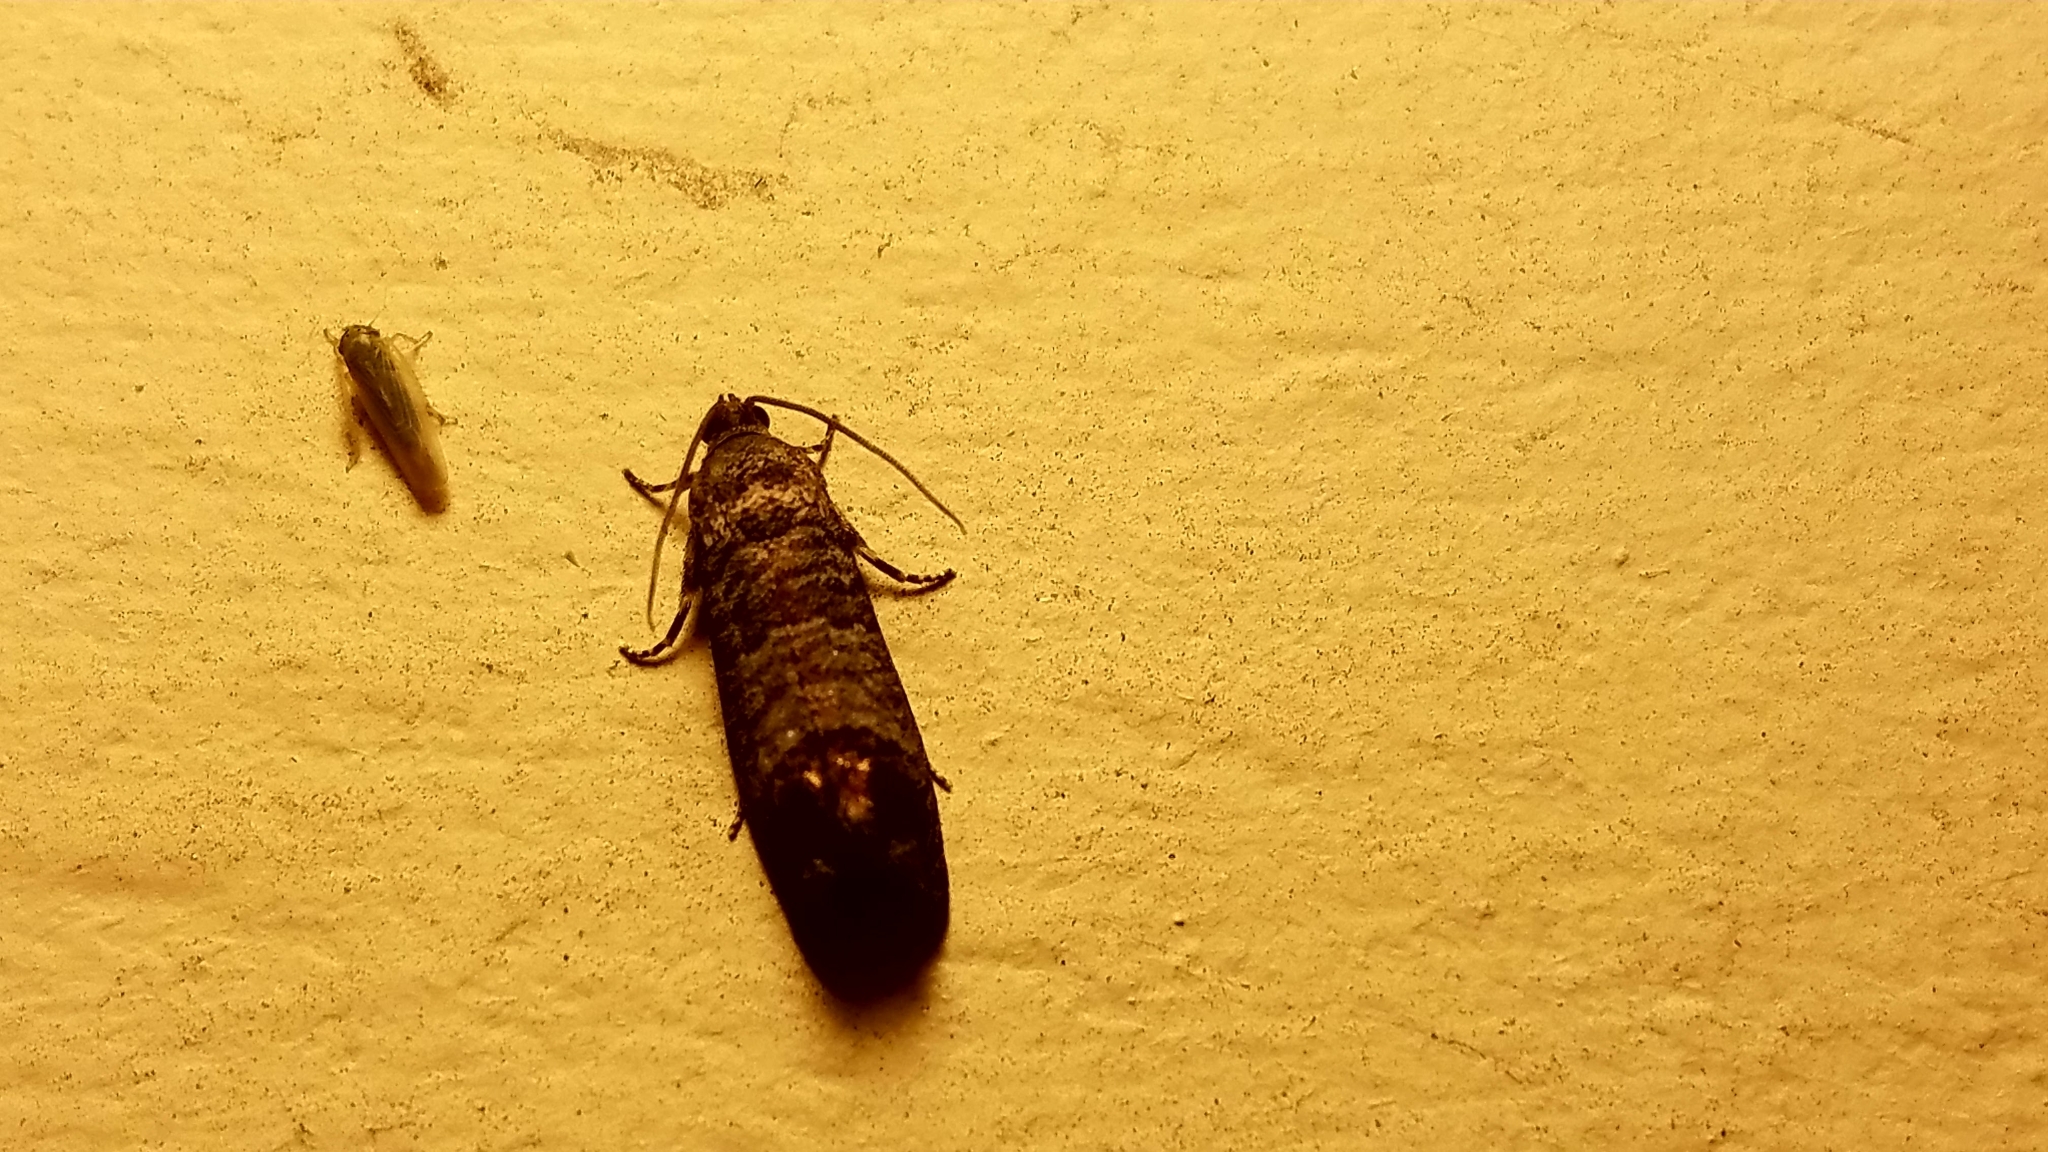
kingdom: Animalia
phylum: Arthropoda
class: Insecta
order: Lepidoptera
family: Tortricidae
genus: Cydia
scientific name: Cydia pomonella
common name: Codling moth
